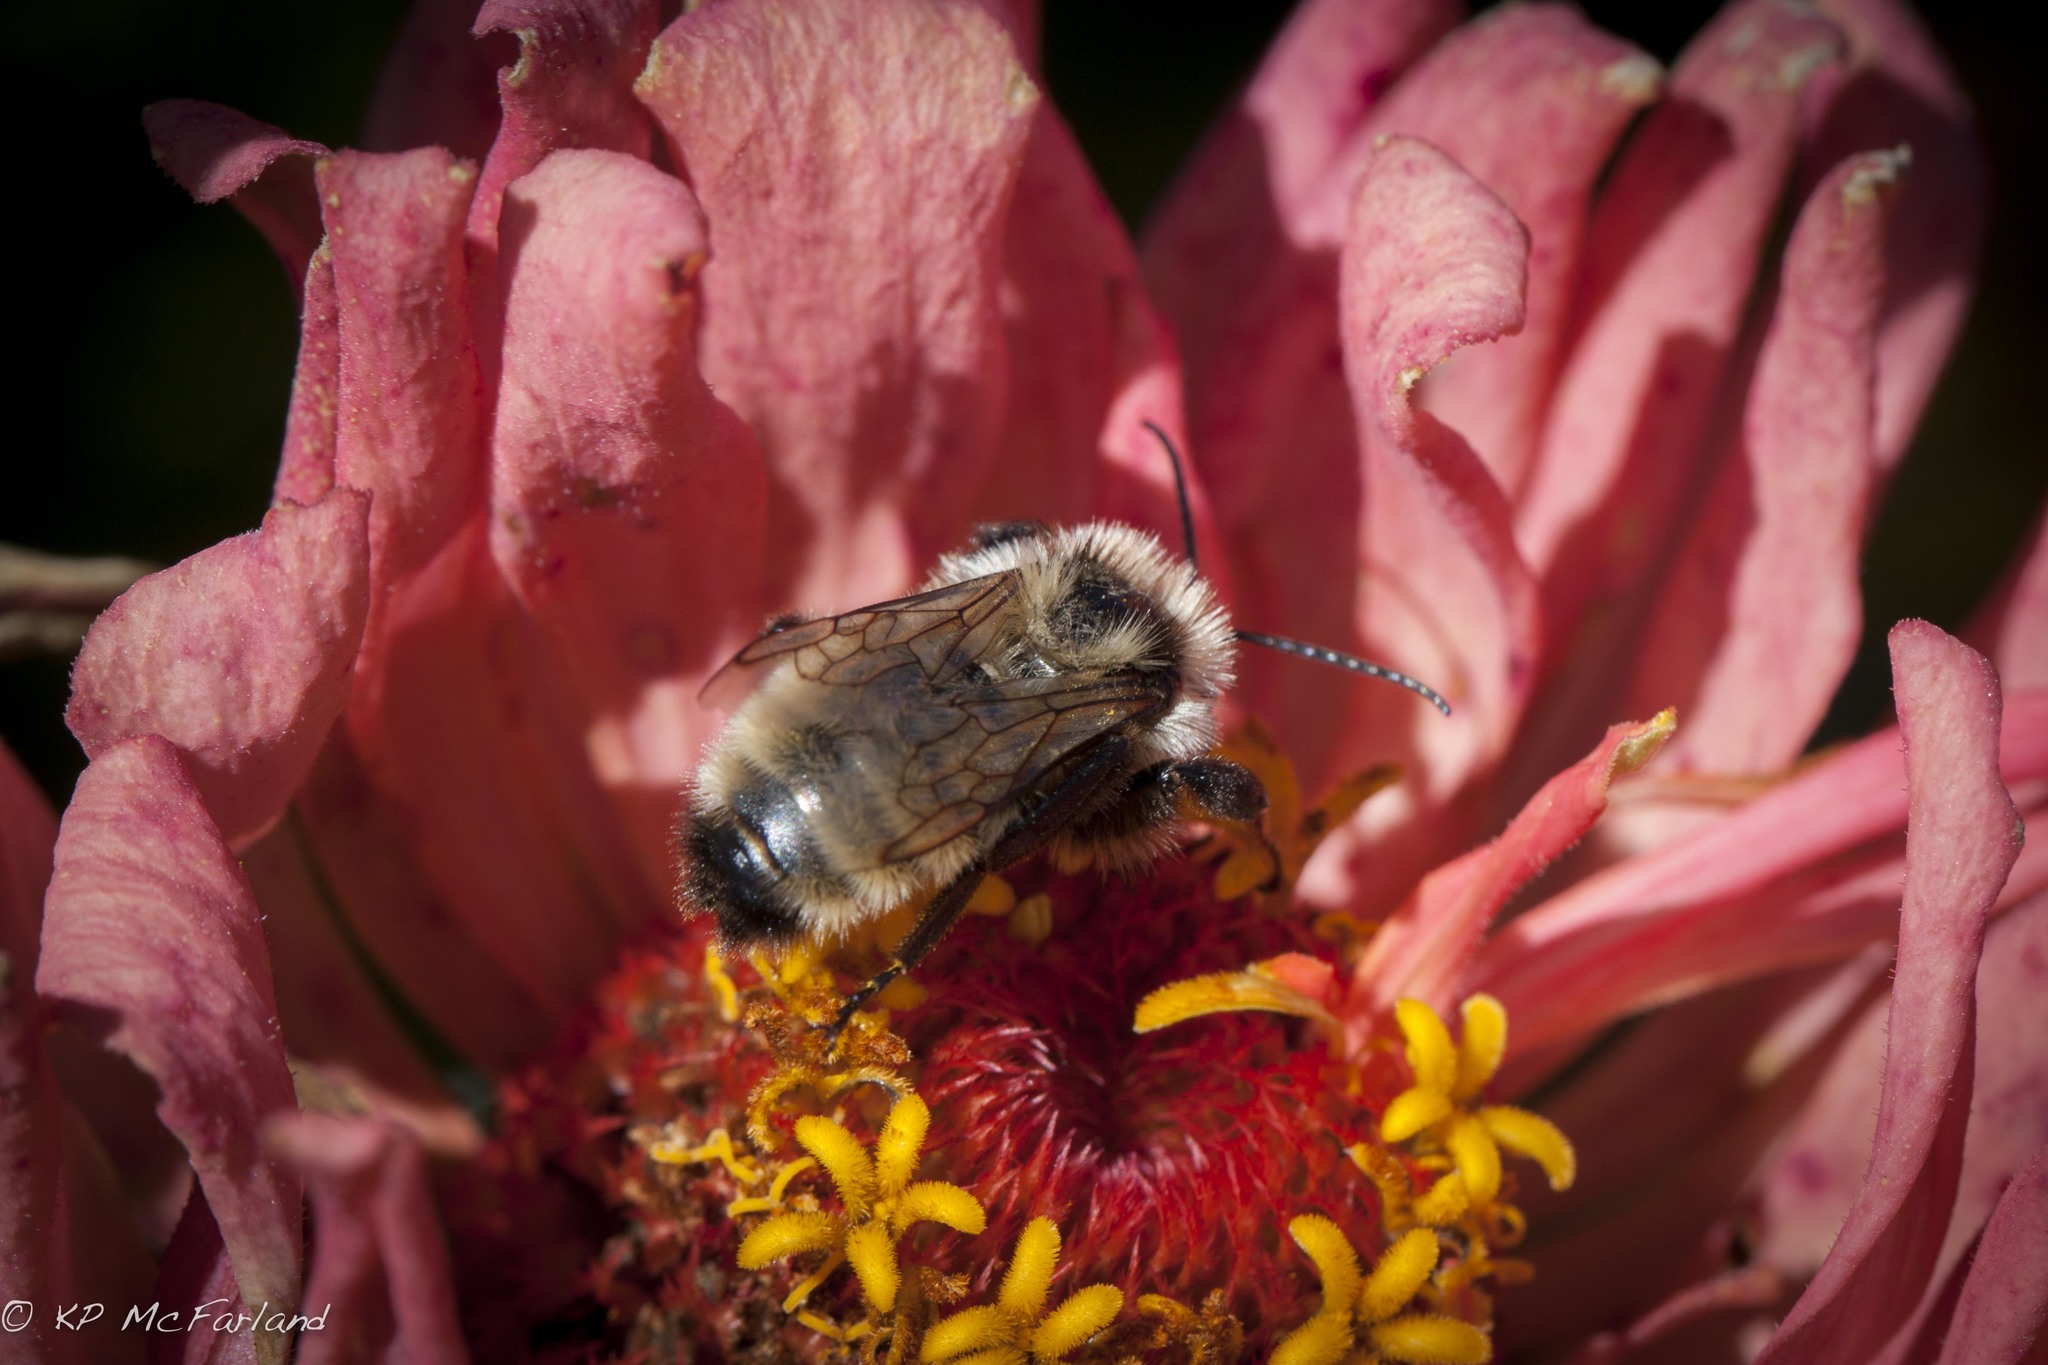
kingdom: Animalia
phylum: Arthropoda
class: Insecta
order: Hymenoptera
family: Apidae
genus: Bombus
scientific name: Bombus fervidus
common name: Yellow bumble bee
